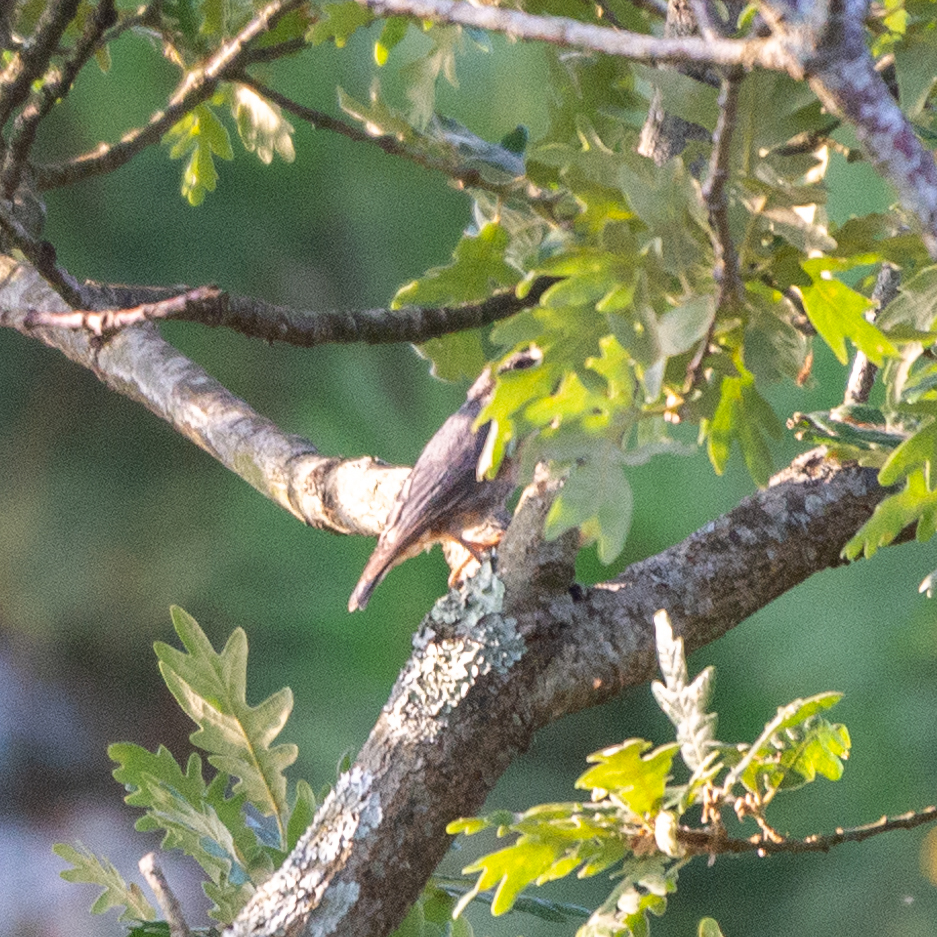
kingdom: Animalia
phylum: Chordata
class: Aves
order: Passeriformes
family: Sittidae
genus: Sitta
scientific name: Sitta europaea
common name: Eurasian nuthatch
